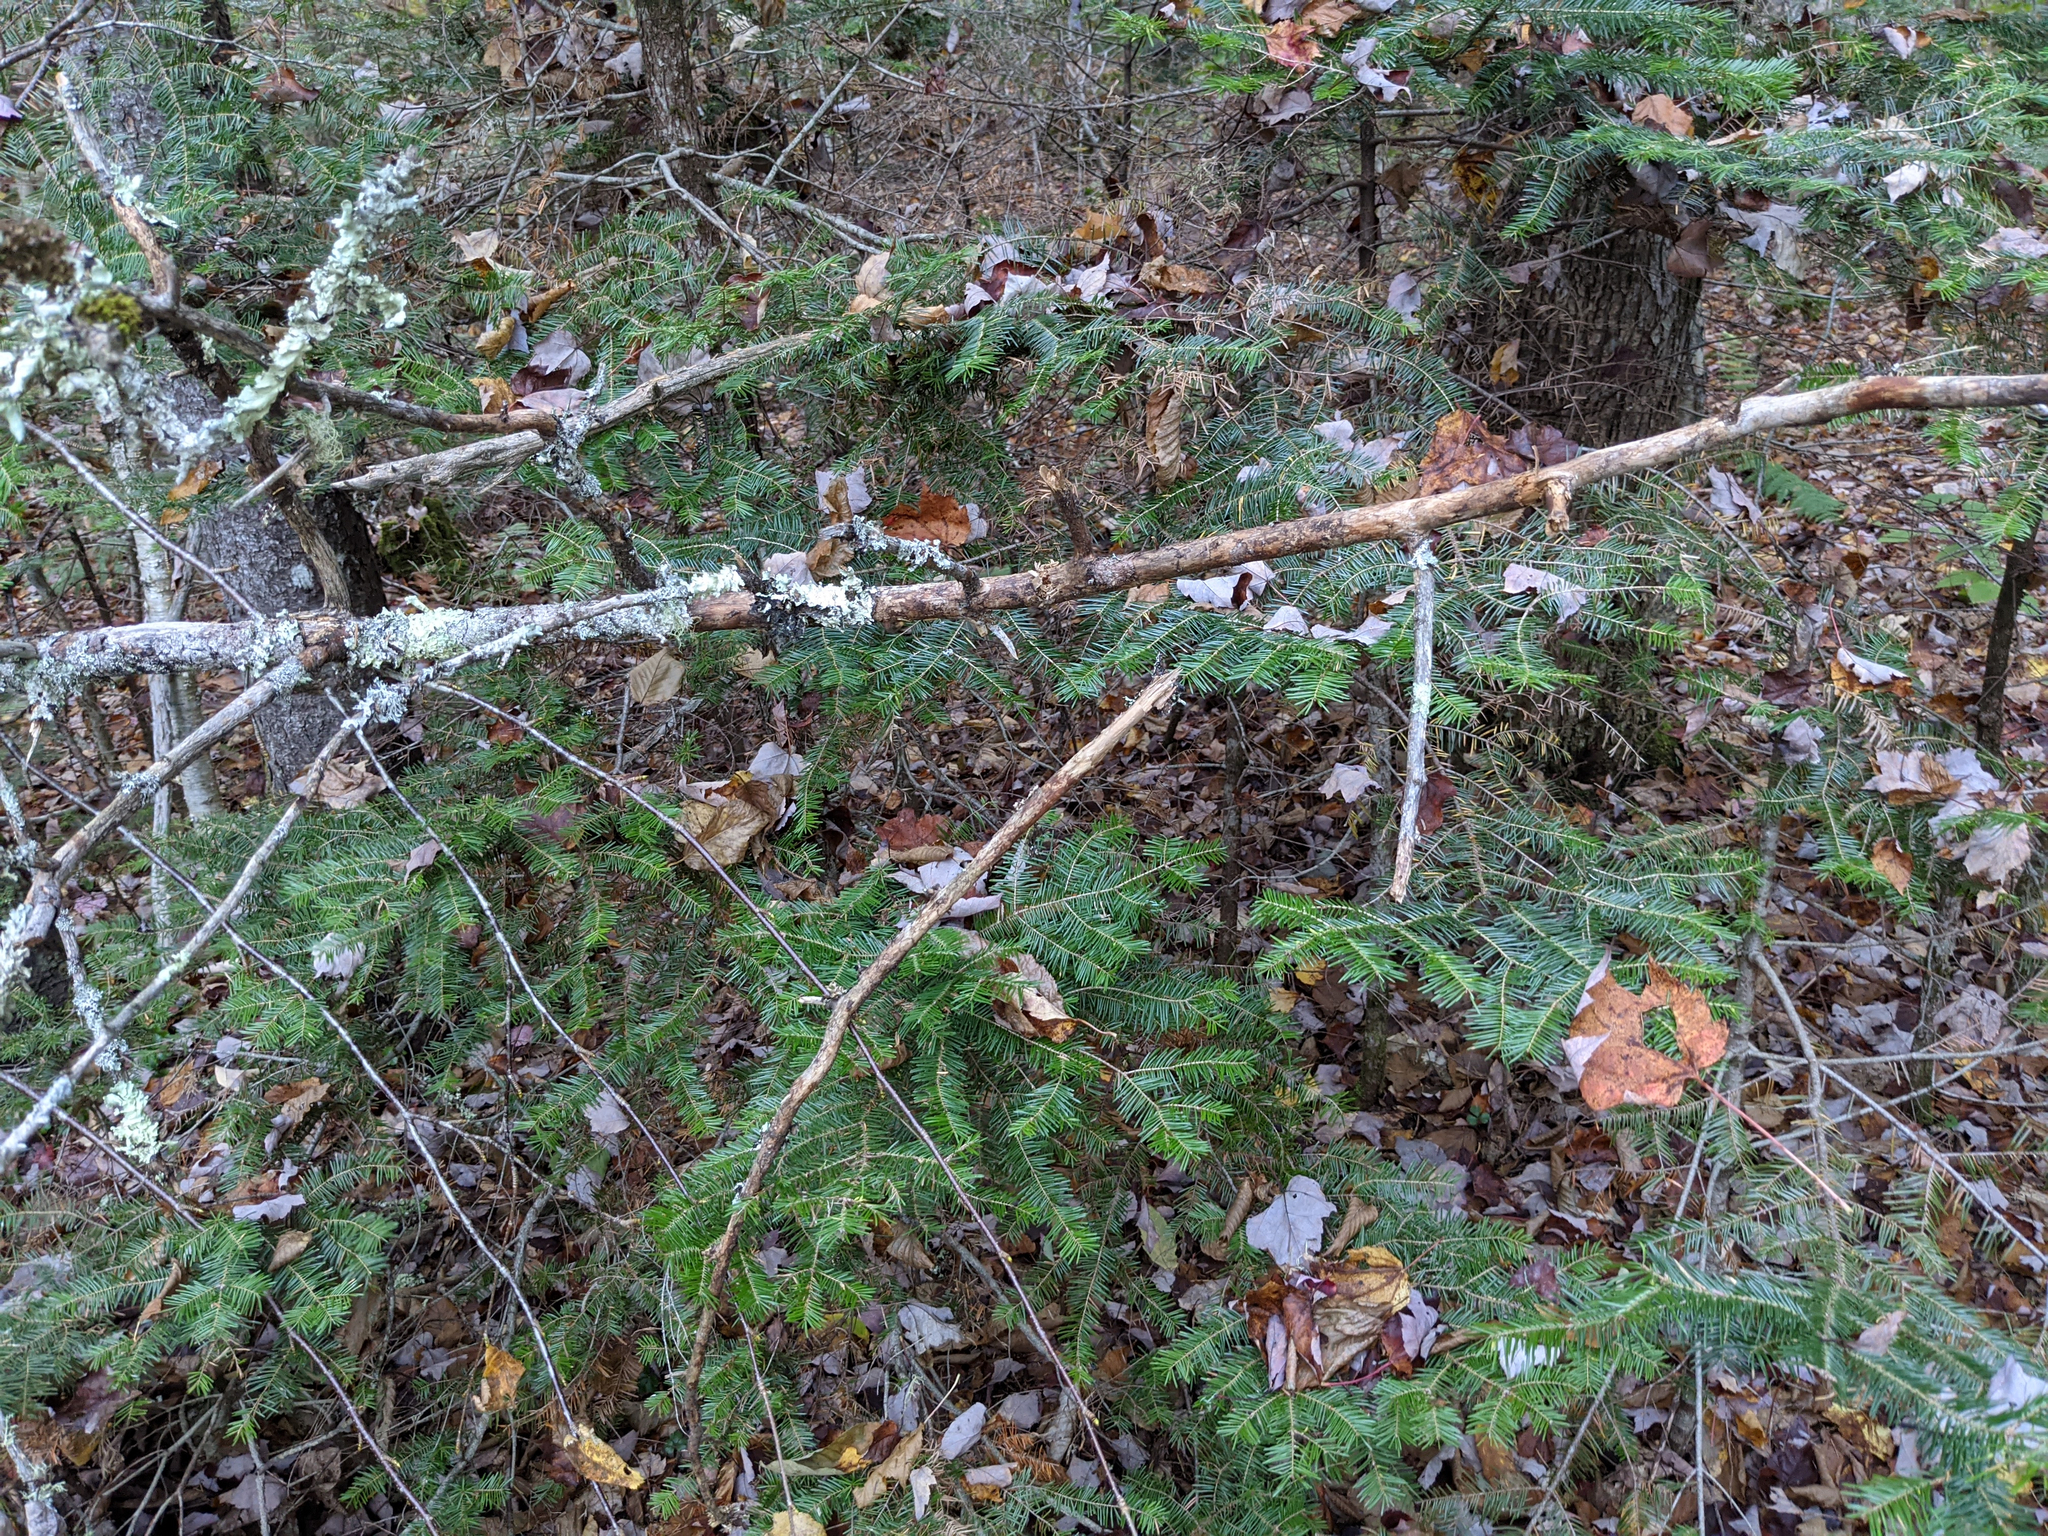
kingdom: Plantae
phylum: Tracheophyta
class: Pinopsida
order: Pinales
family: Pinaceae
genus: Abies
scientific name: Abies balsamea
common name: Balsam fir
